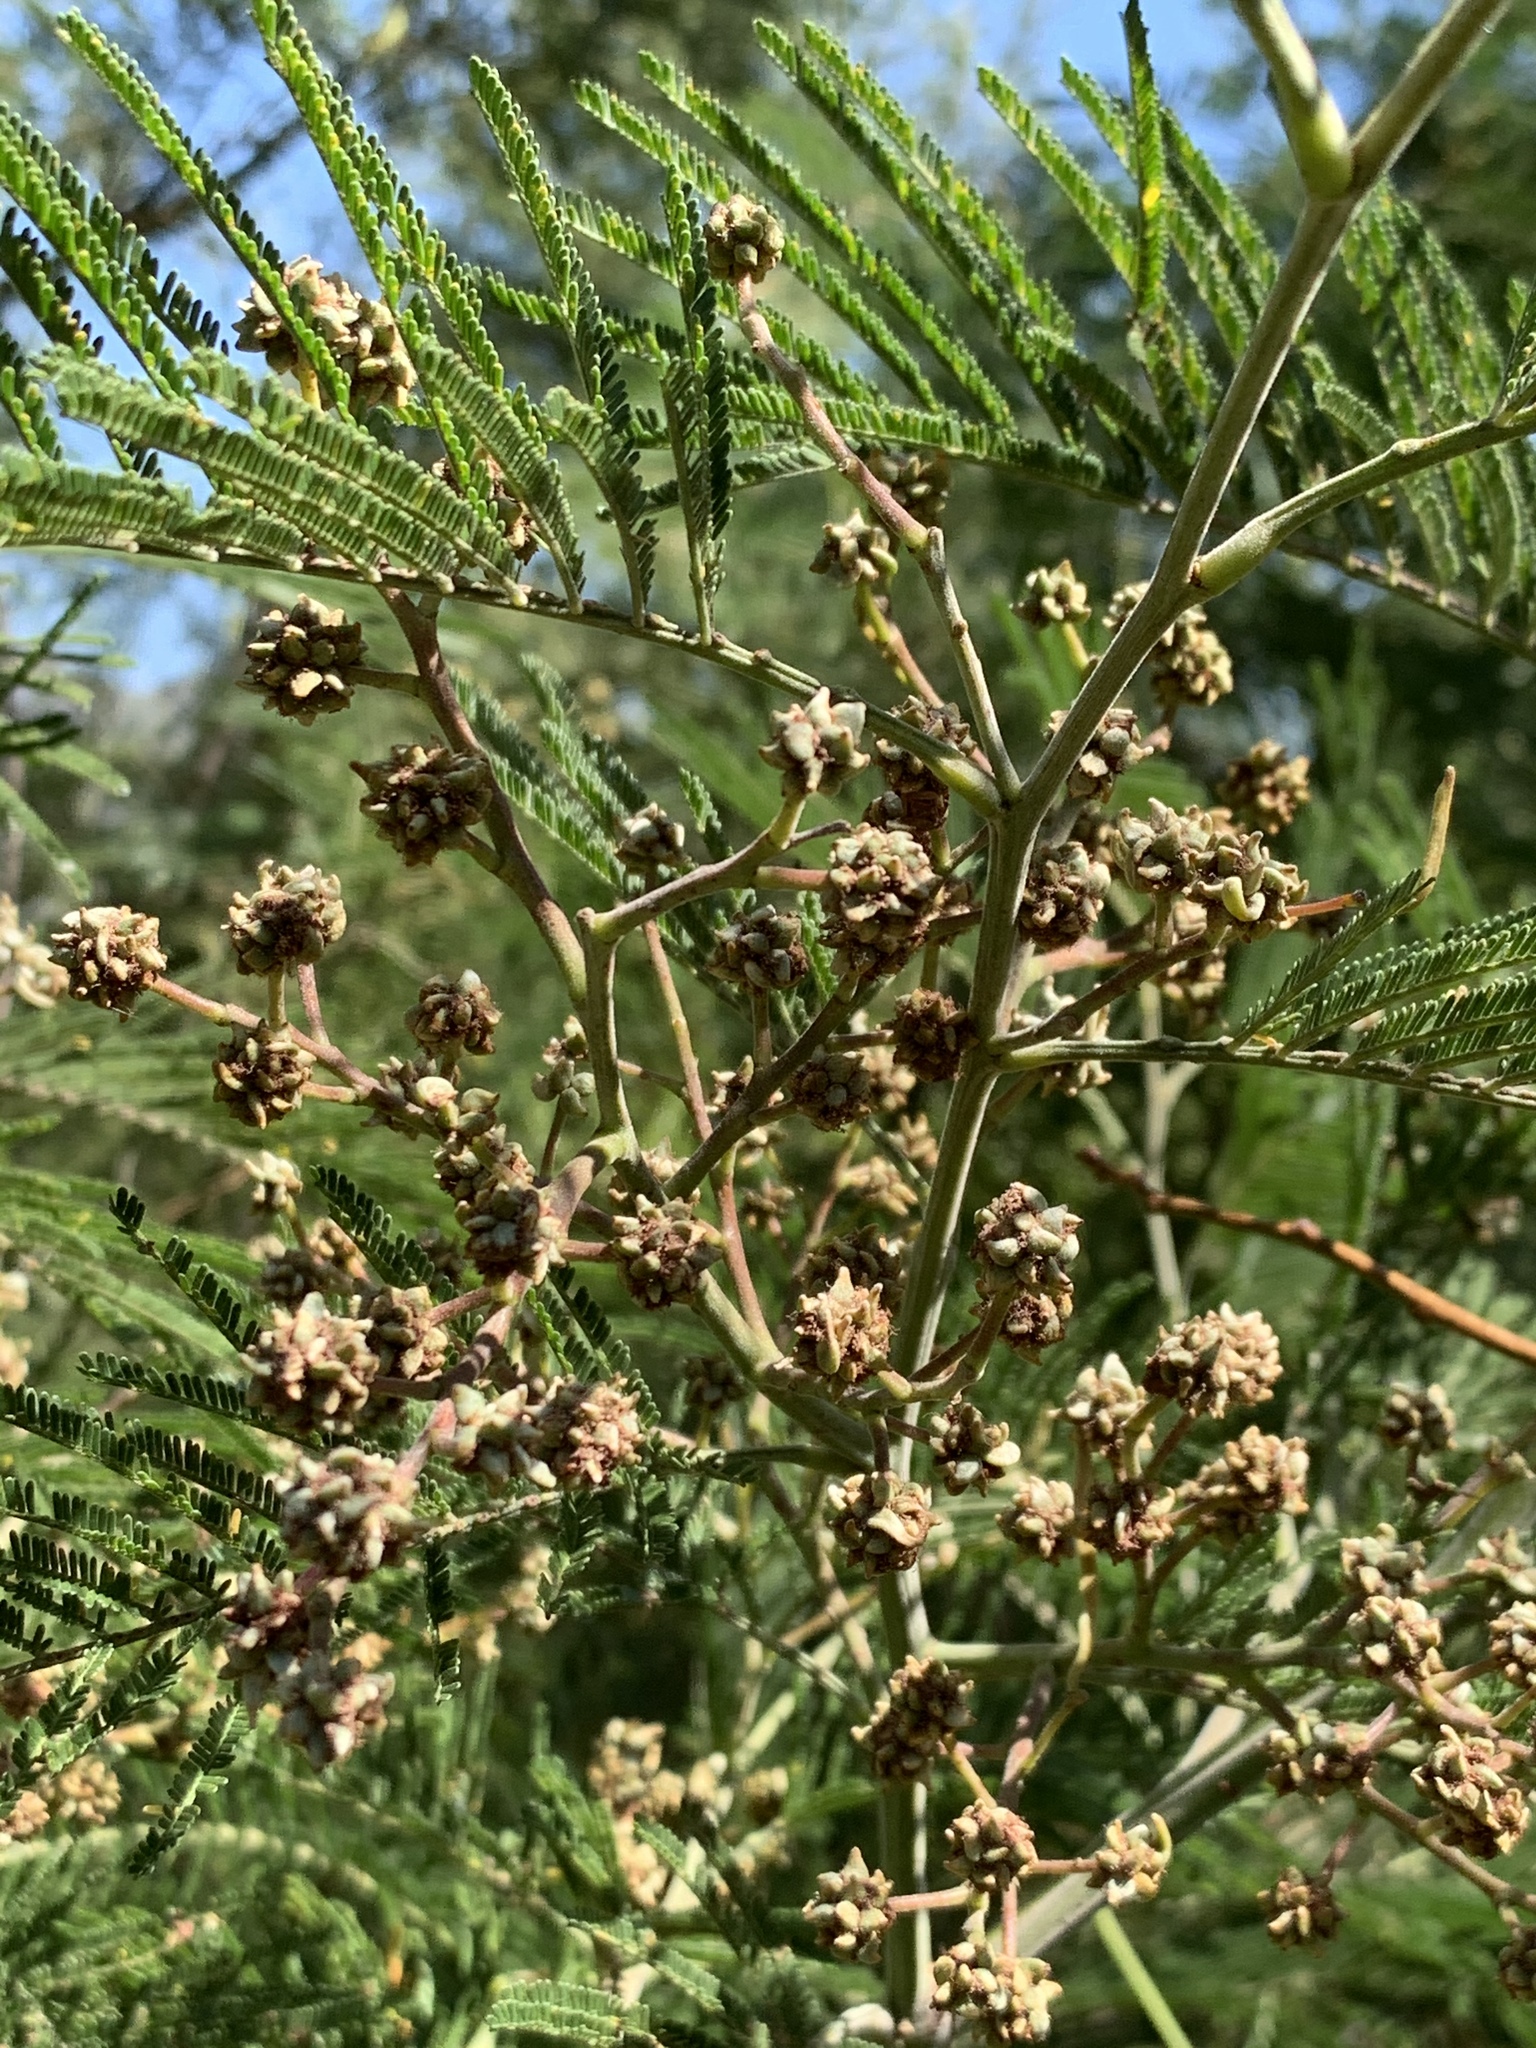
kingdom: Animalia
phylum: Arthropoda
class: Insecta
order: Diptera
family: Cecidomyiidae
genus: Dasineura
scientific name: Dasineura rubiformis
